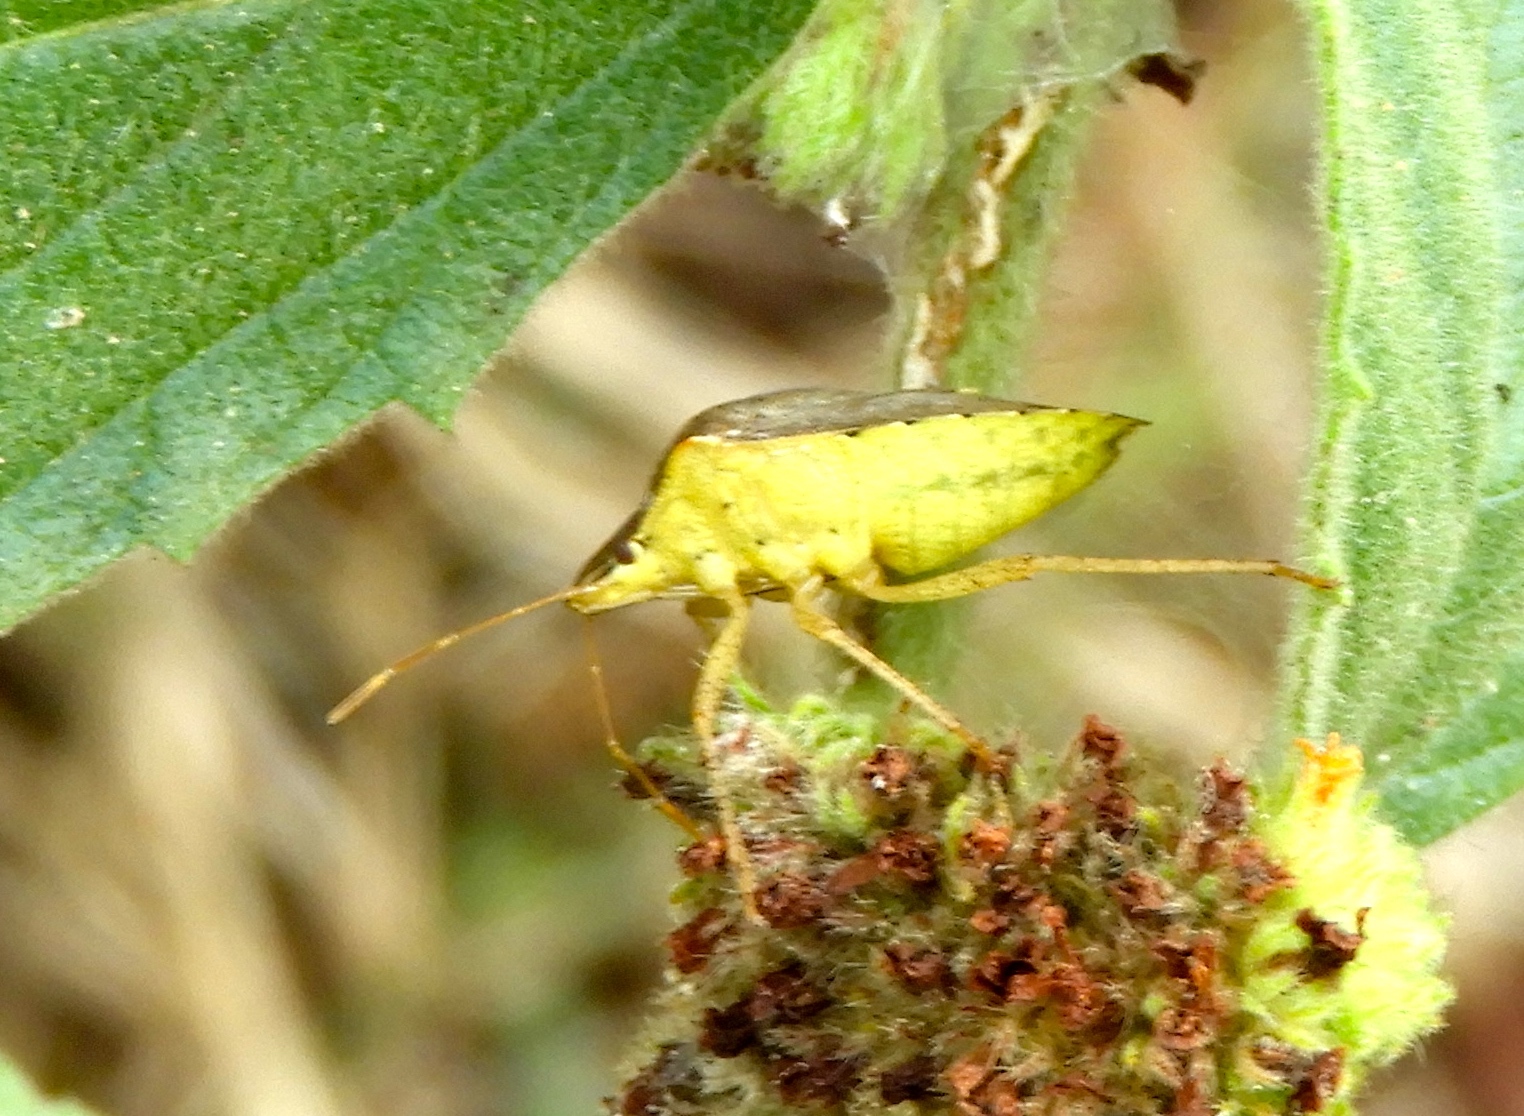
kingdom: Animalia
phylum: Arthropoda
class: Insecta
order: Hemiptera
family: Pentatomidae
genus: Euschistus
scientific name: Euschistus
